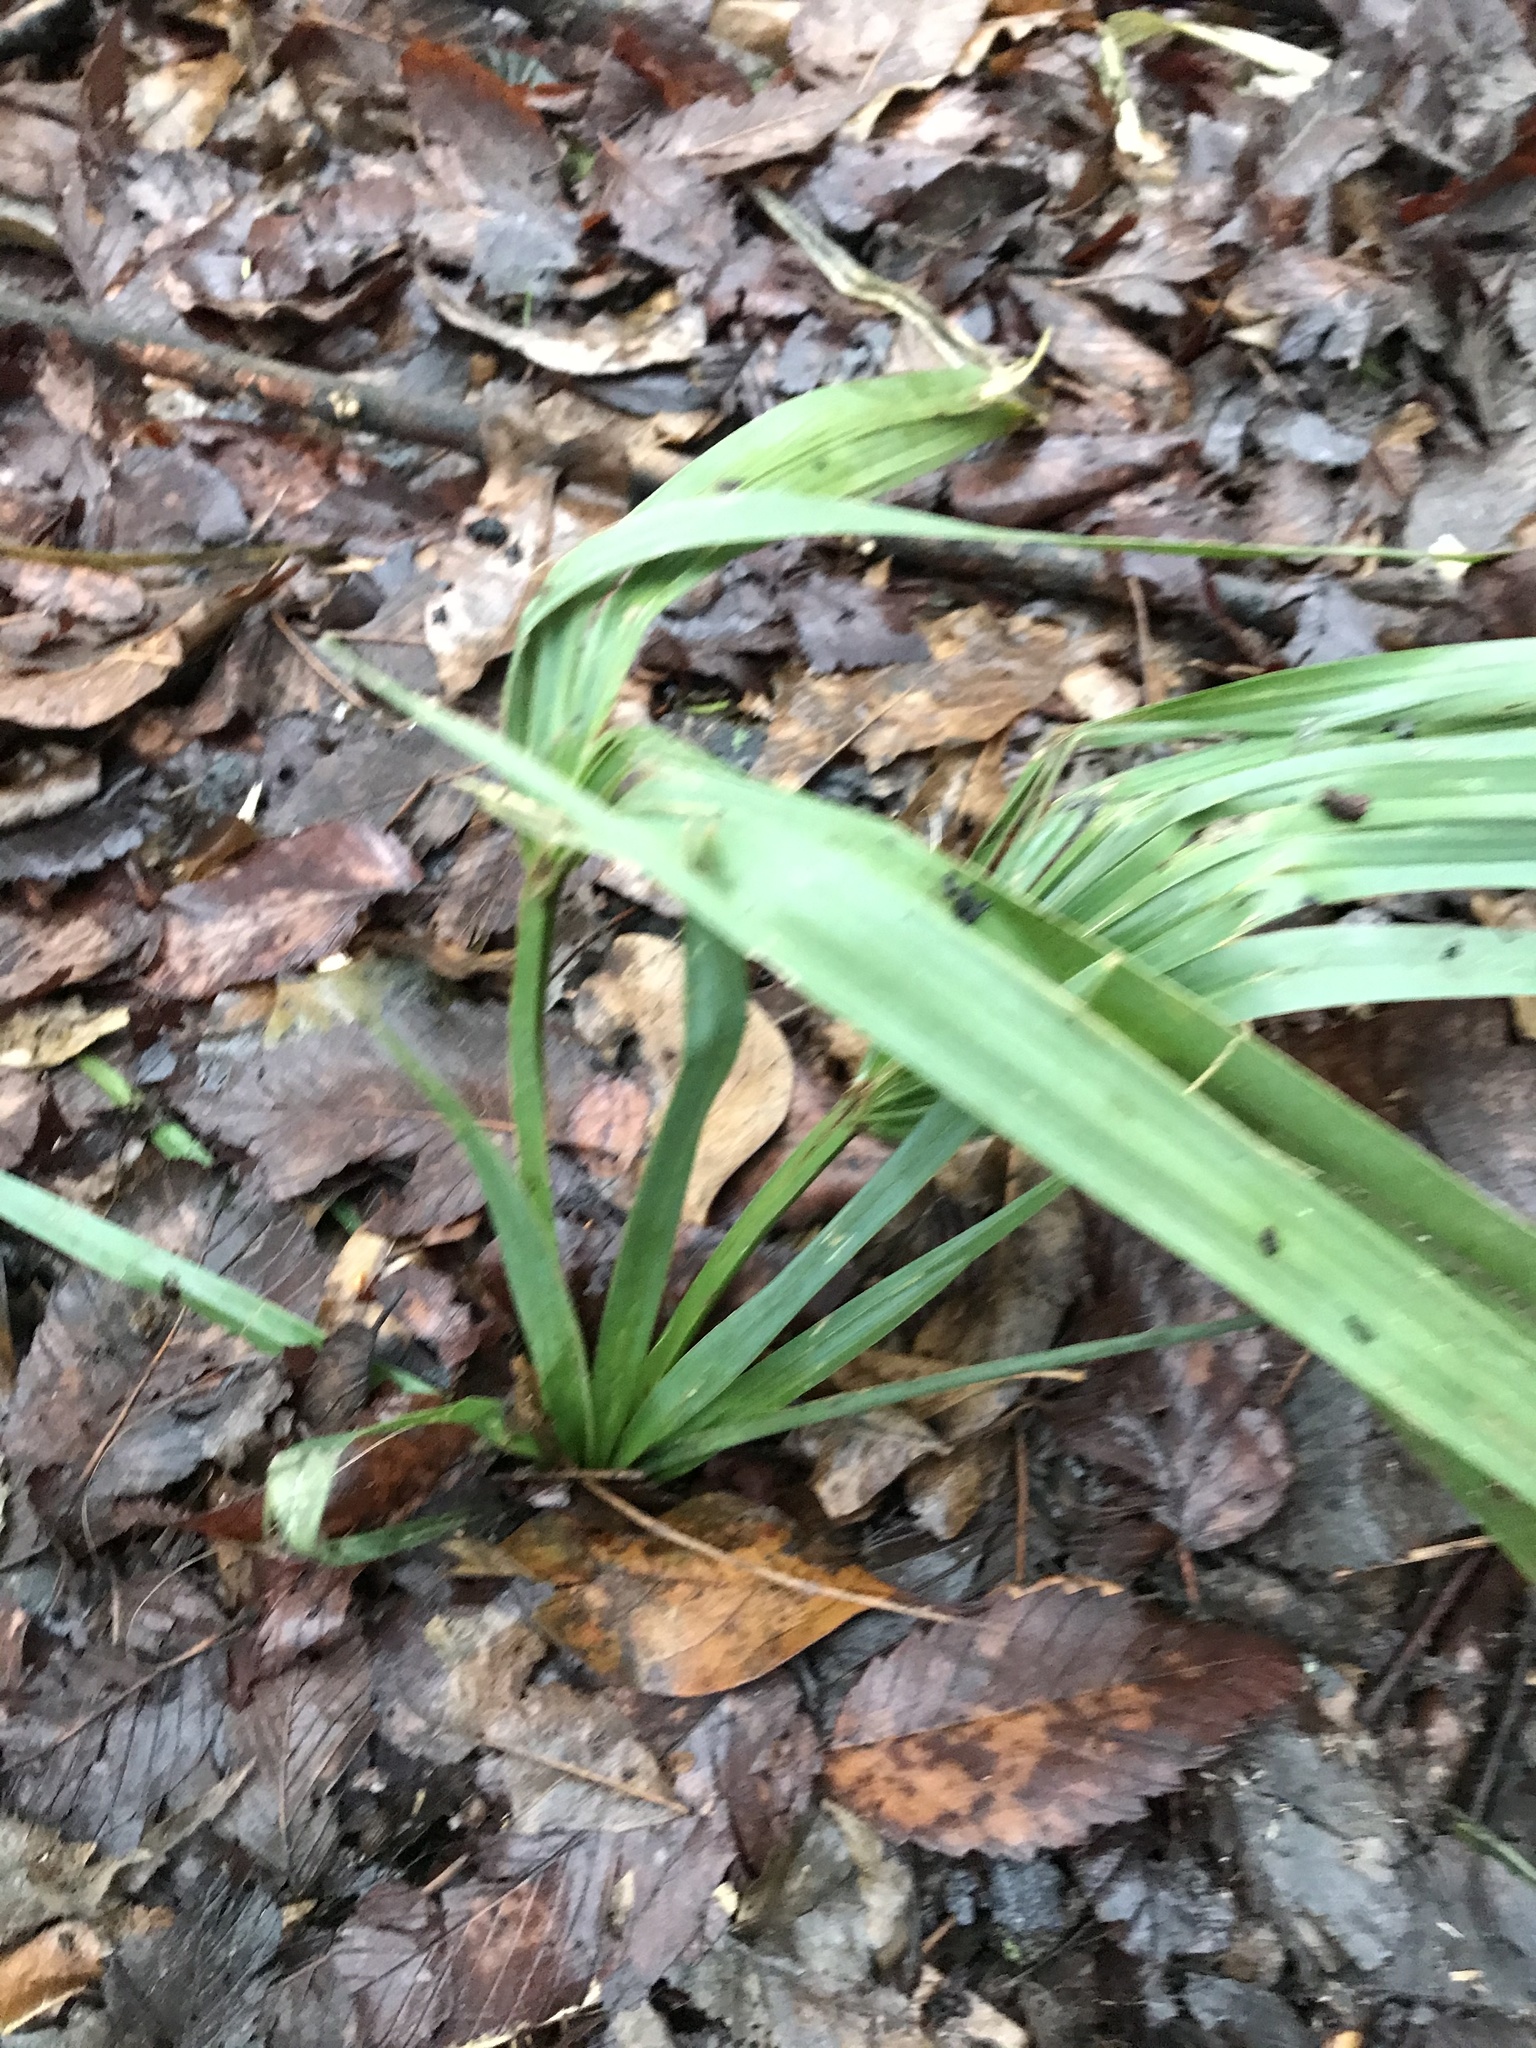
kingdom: Plantae
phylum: Tracheophyta
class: Liliopsida
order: Arecales
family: Arecaceae
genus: Sabal
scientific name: Sabal minor
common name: Dwarf palmetto
